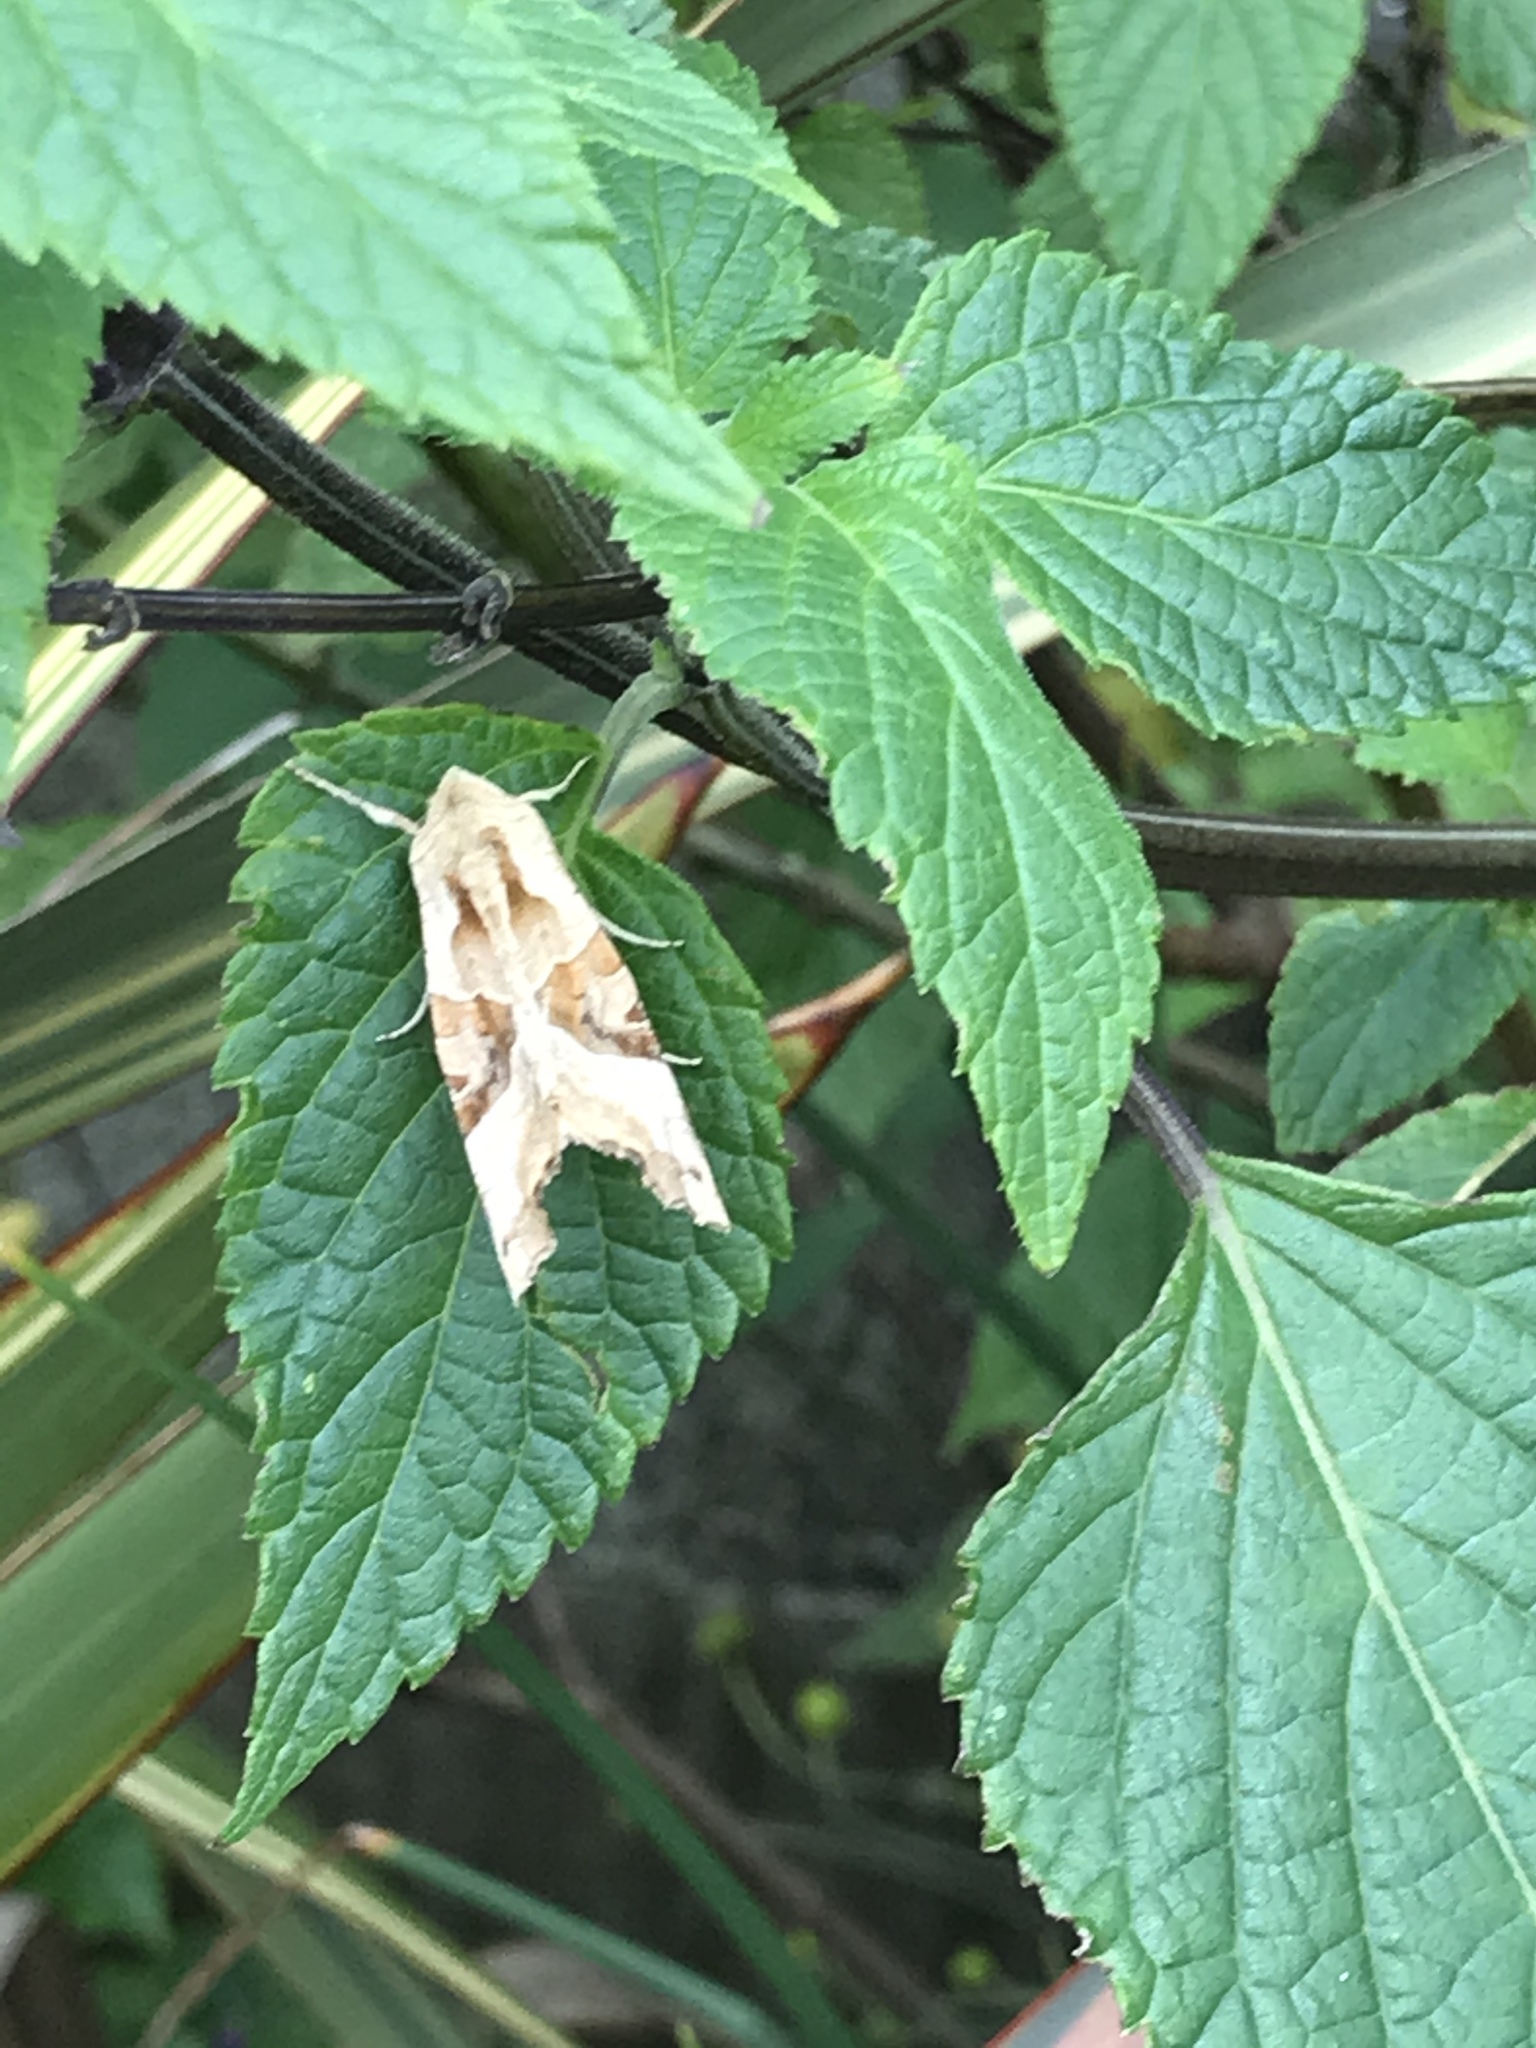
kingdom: Animalia
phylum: Arthropoda
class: Insecta
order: Lepidoptera
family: Noctuidae
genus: Phlogophora
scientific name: Phlogophora meticulosa
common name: Angle shades
